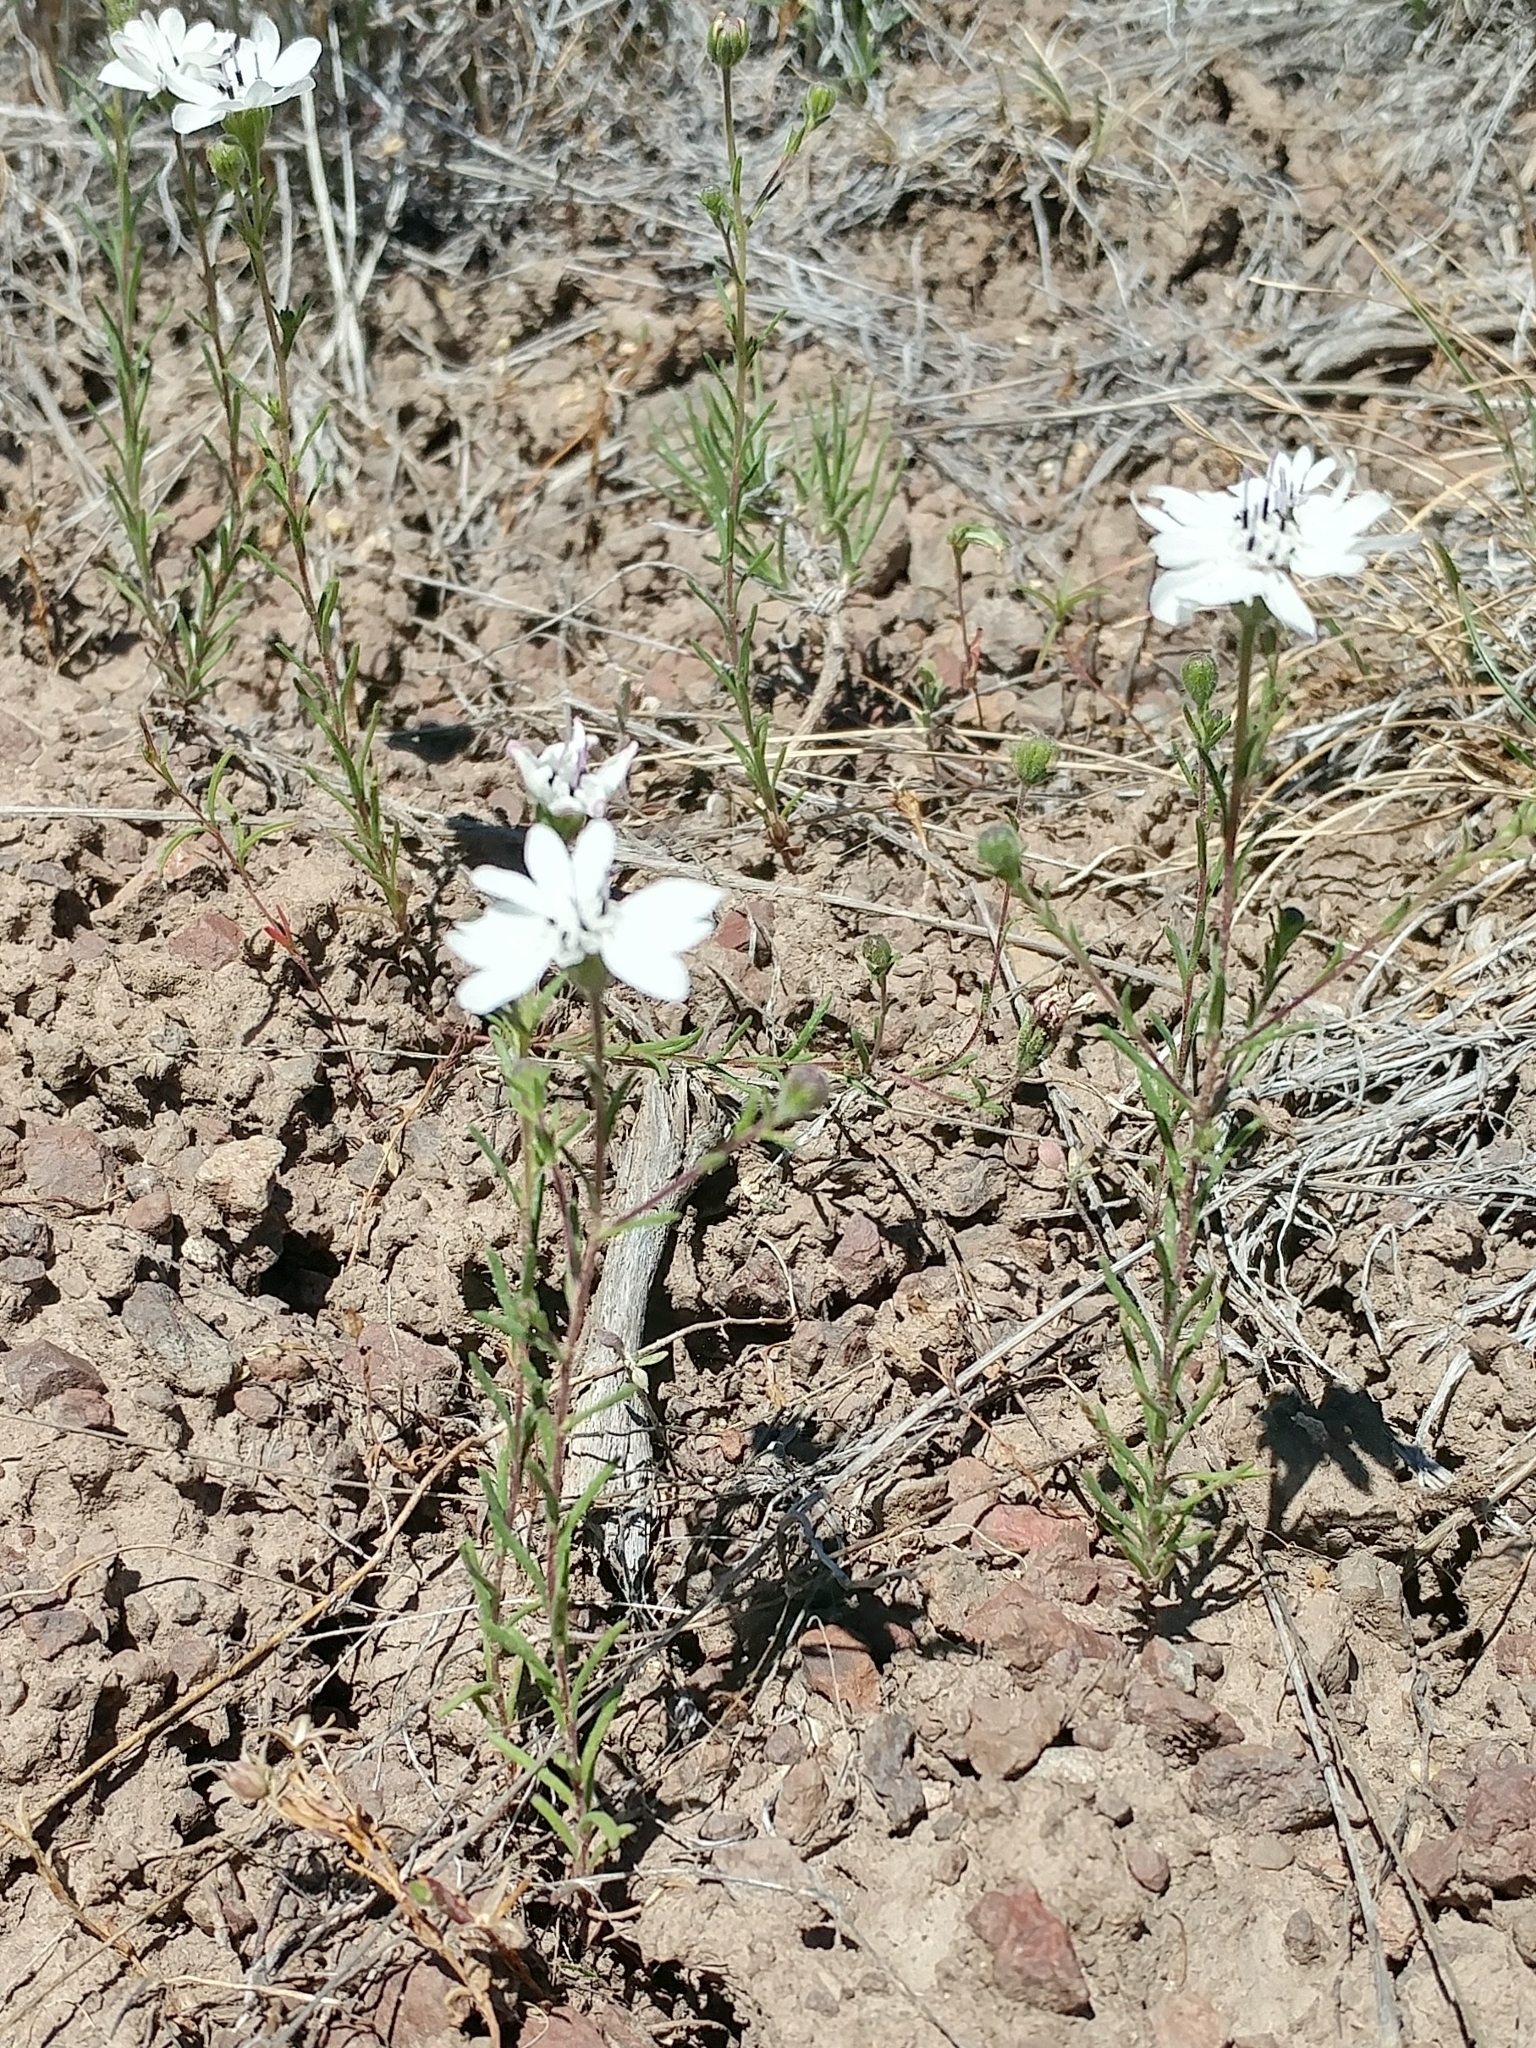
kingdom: Plantae
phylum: Tracheophyta
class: Magnoliopsida
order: Asterales
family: Asteraceae
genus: Blepharipappus
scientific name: Blepharipappus scaber
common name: Rough blepharipappus
